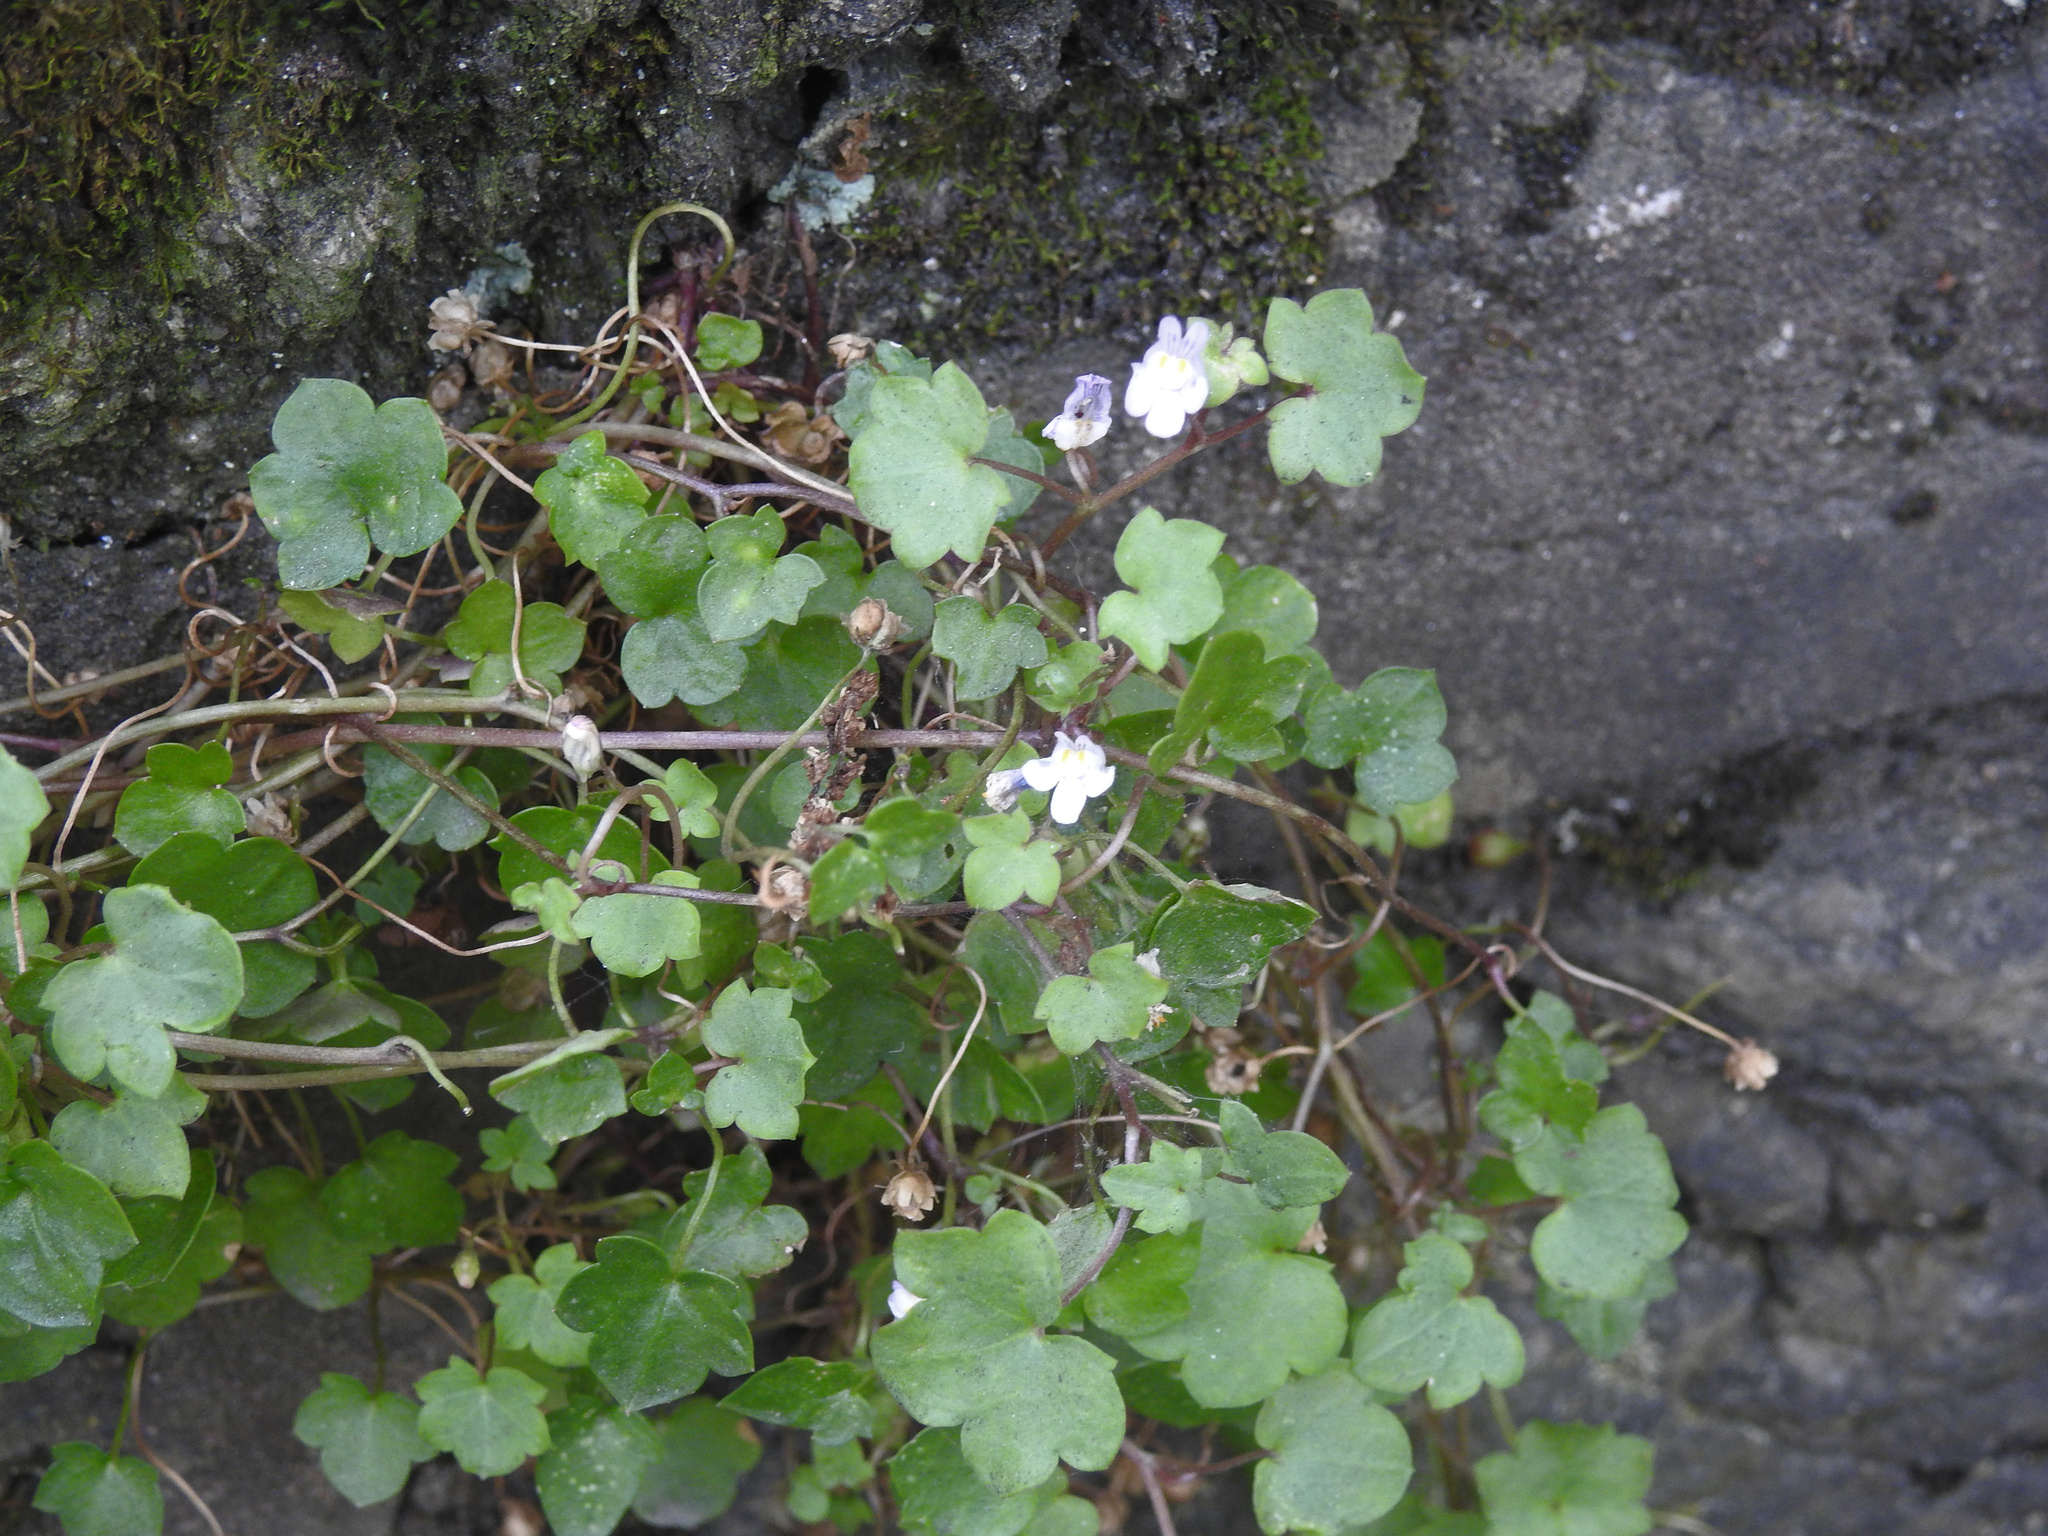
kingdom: Plantae
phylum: Tracheophyta
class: Magnoliopsida
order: Lamiales
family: Plantaginaceae
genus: Cymbalaria
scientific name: Cymbalaria muralis
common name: Ivy-leaved toadflax
